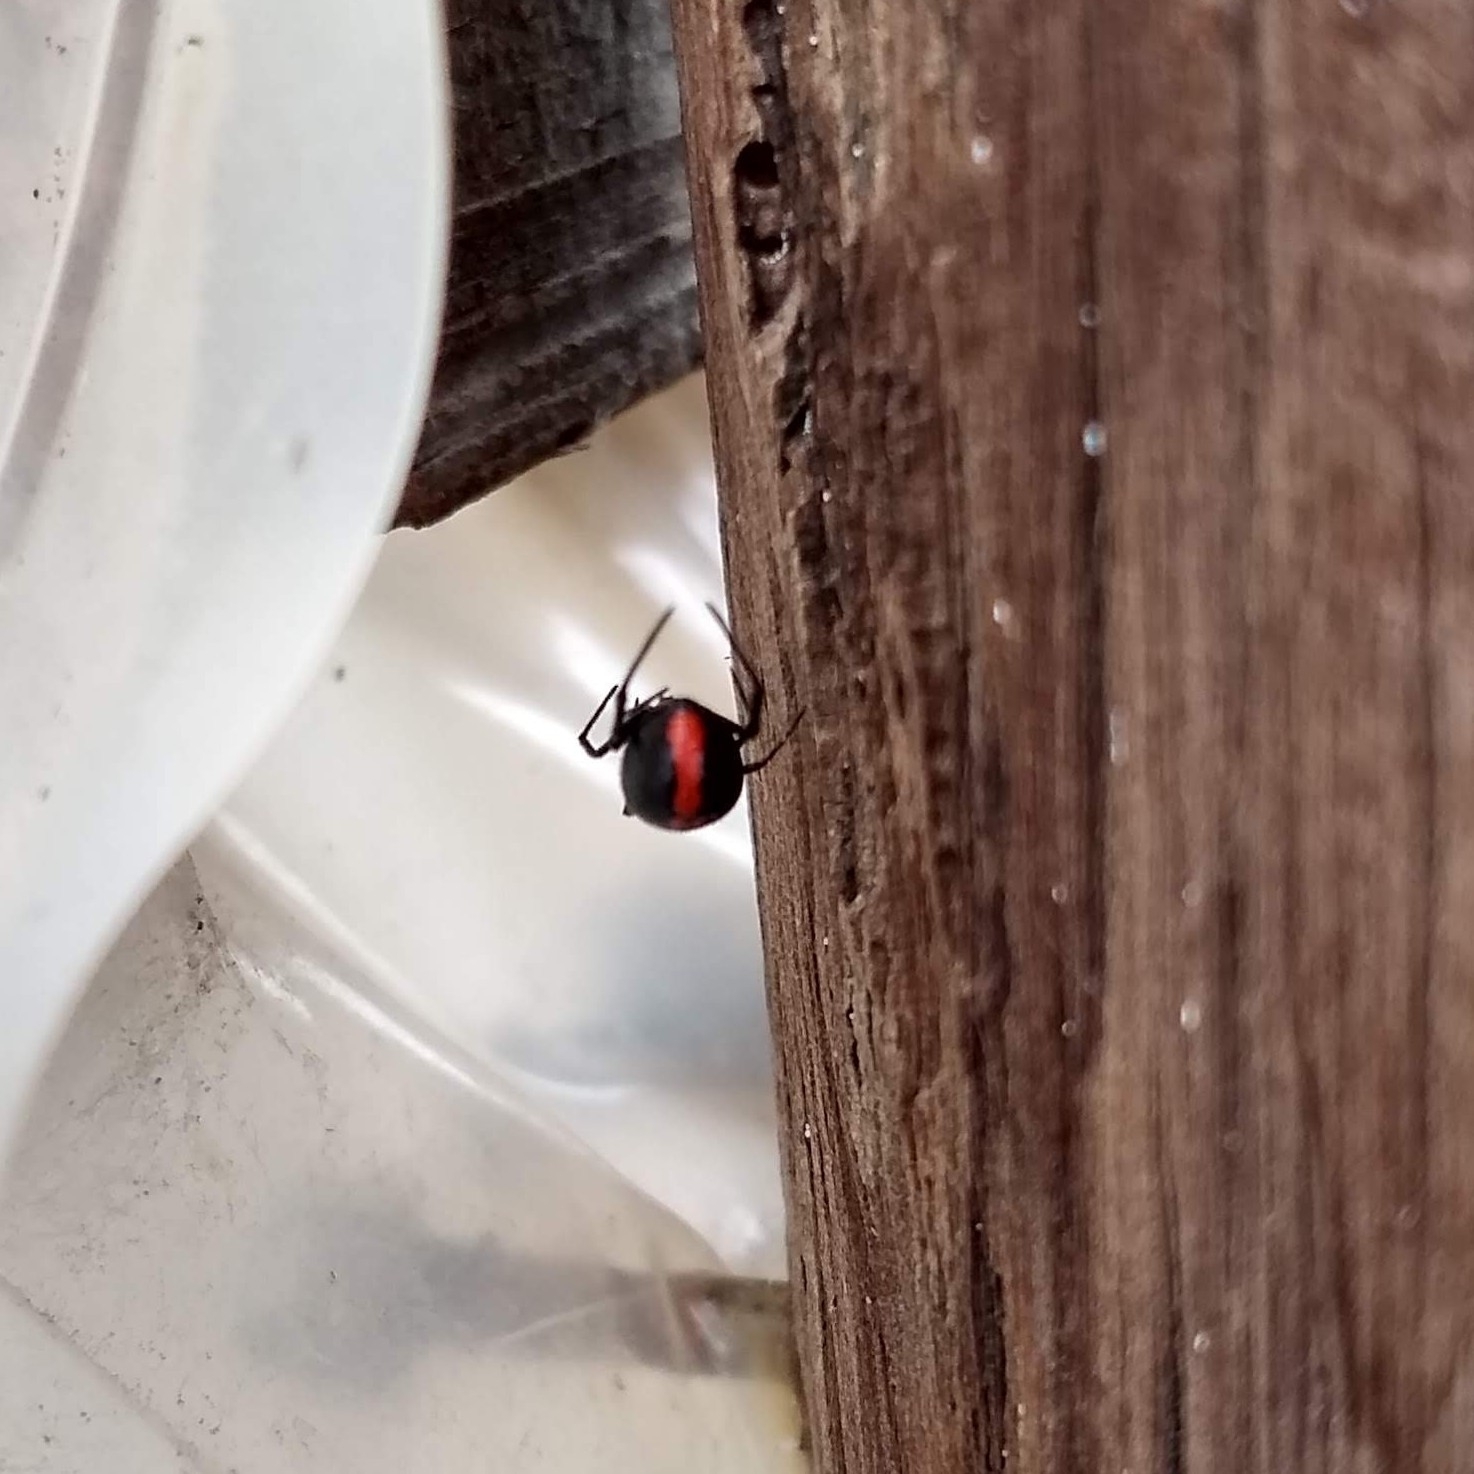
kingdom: Animalia
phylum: Arthropoda
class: Arachnida
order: Araneae
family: Theridiidae
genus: Latrodectus
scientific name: Latrodectus mirabilis
